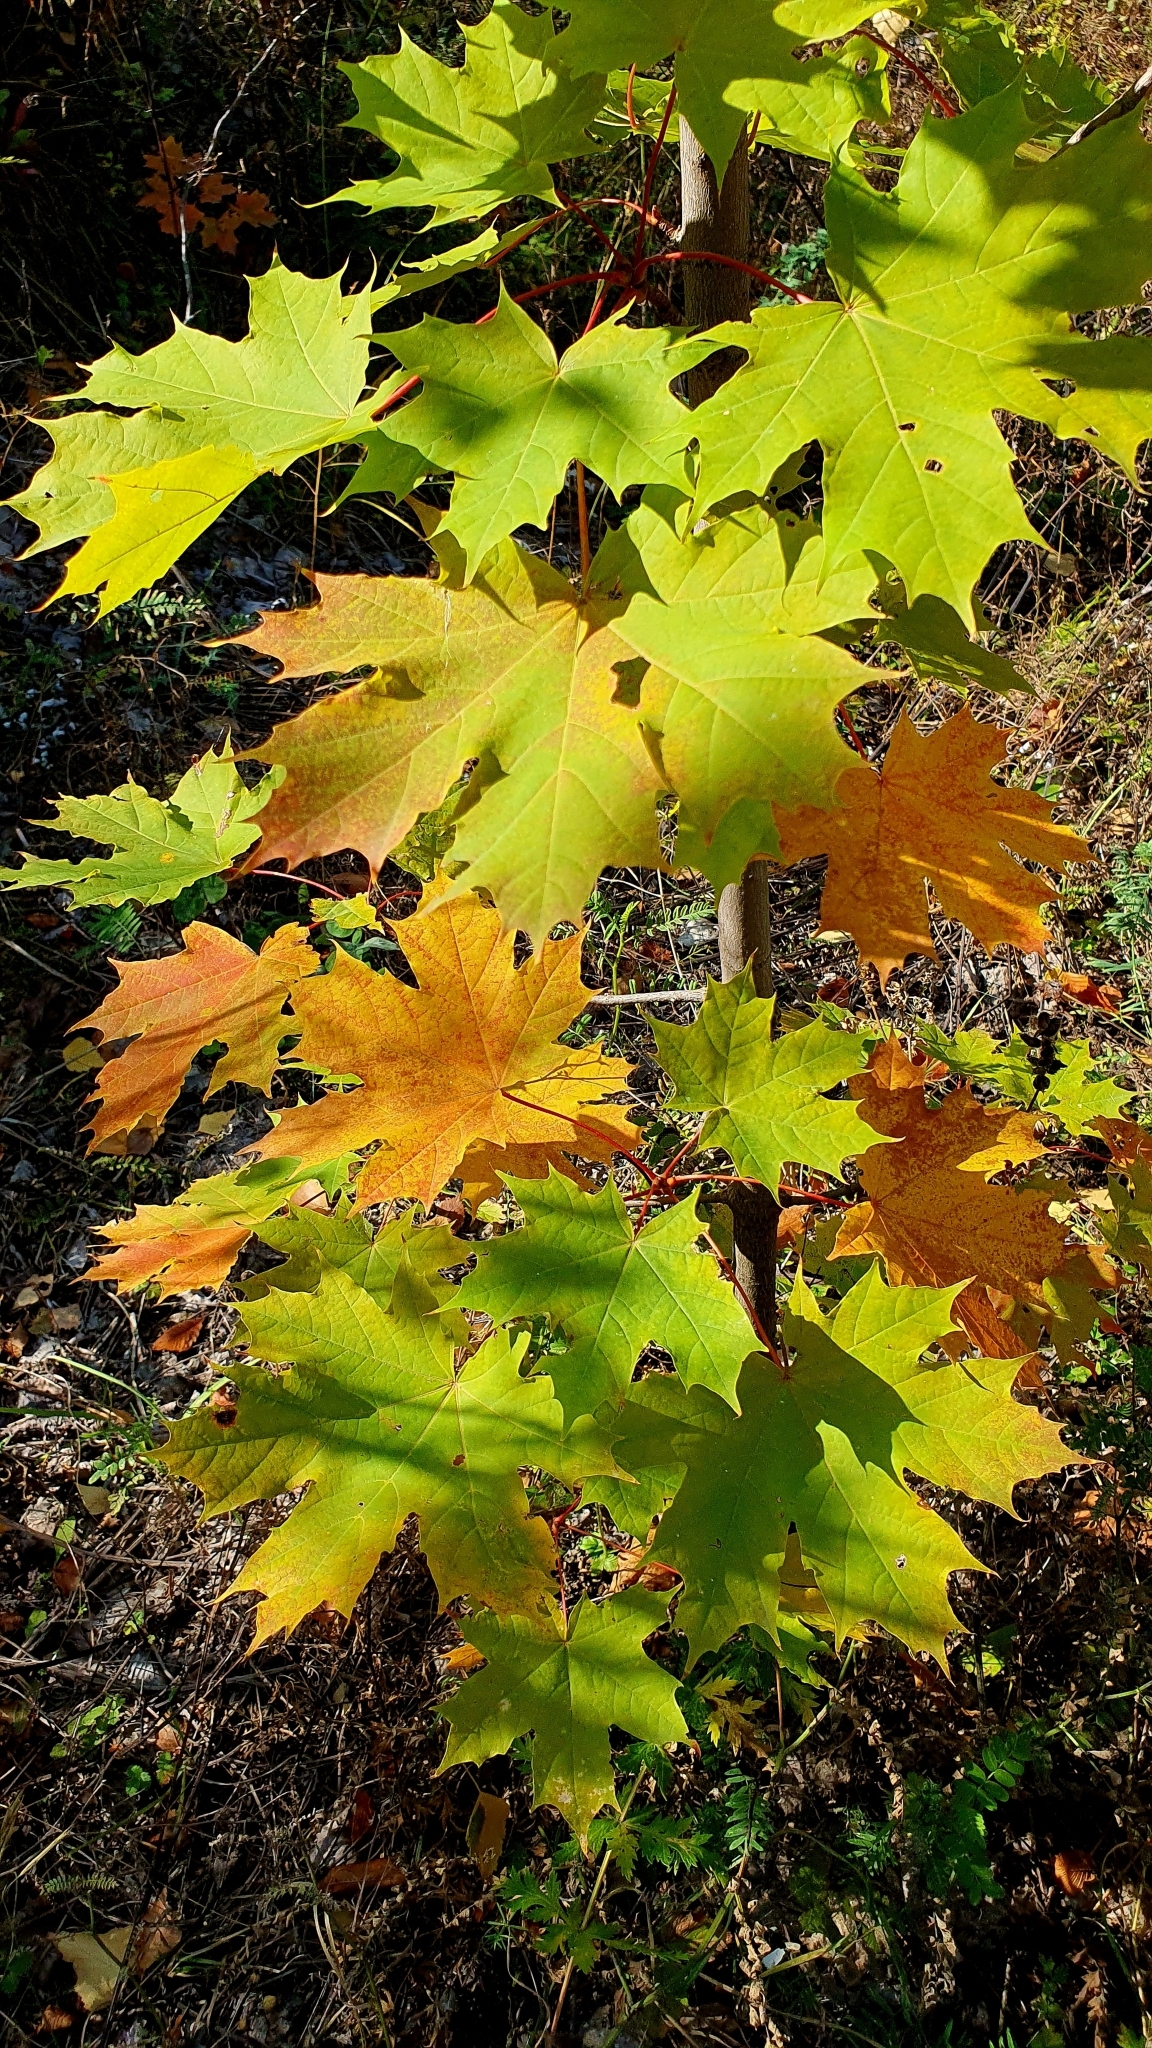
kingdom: Plantae
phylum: Tracheophyta
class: Magnoliopsida
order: Sapindales
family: Sapindaceae
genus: Acer
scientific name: Acer platanoides
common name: Norway maple
